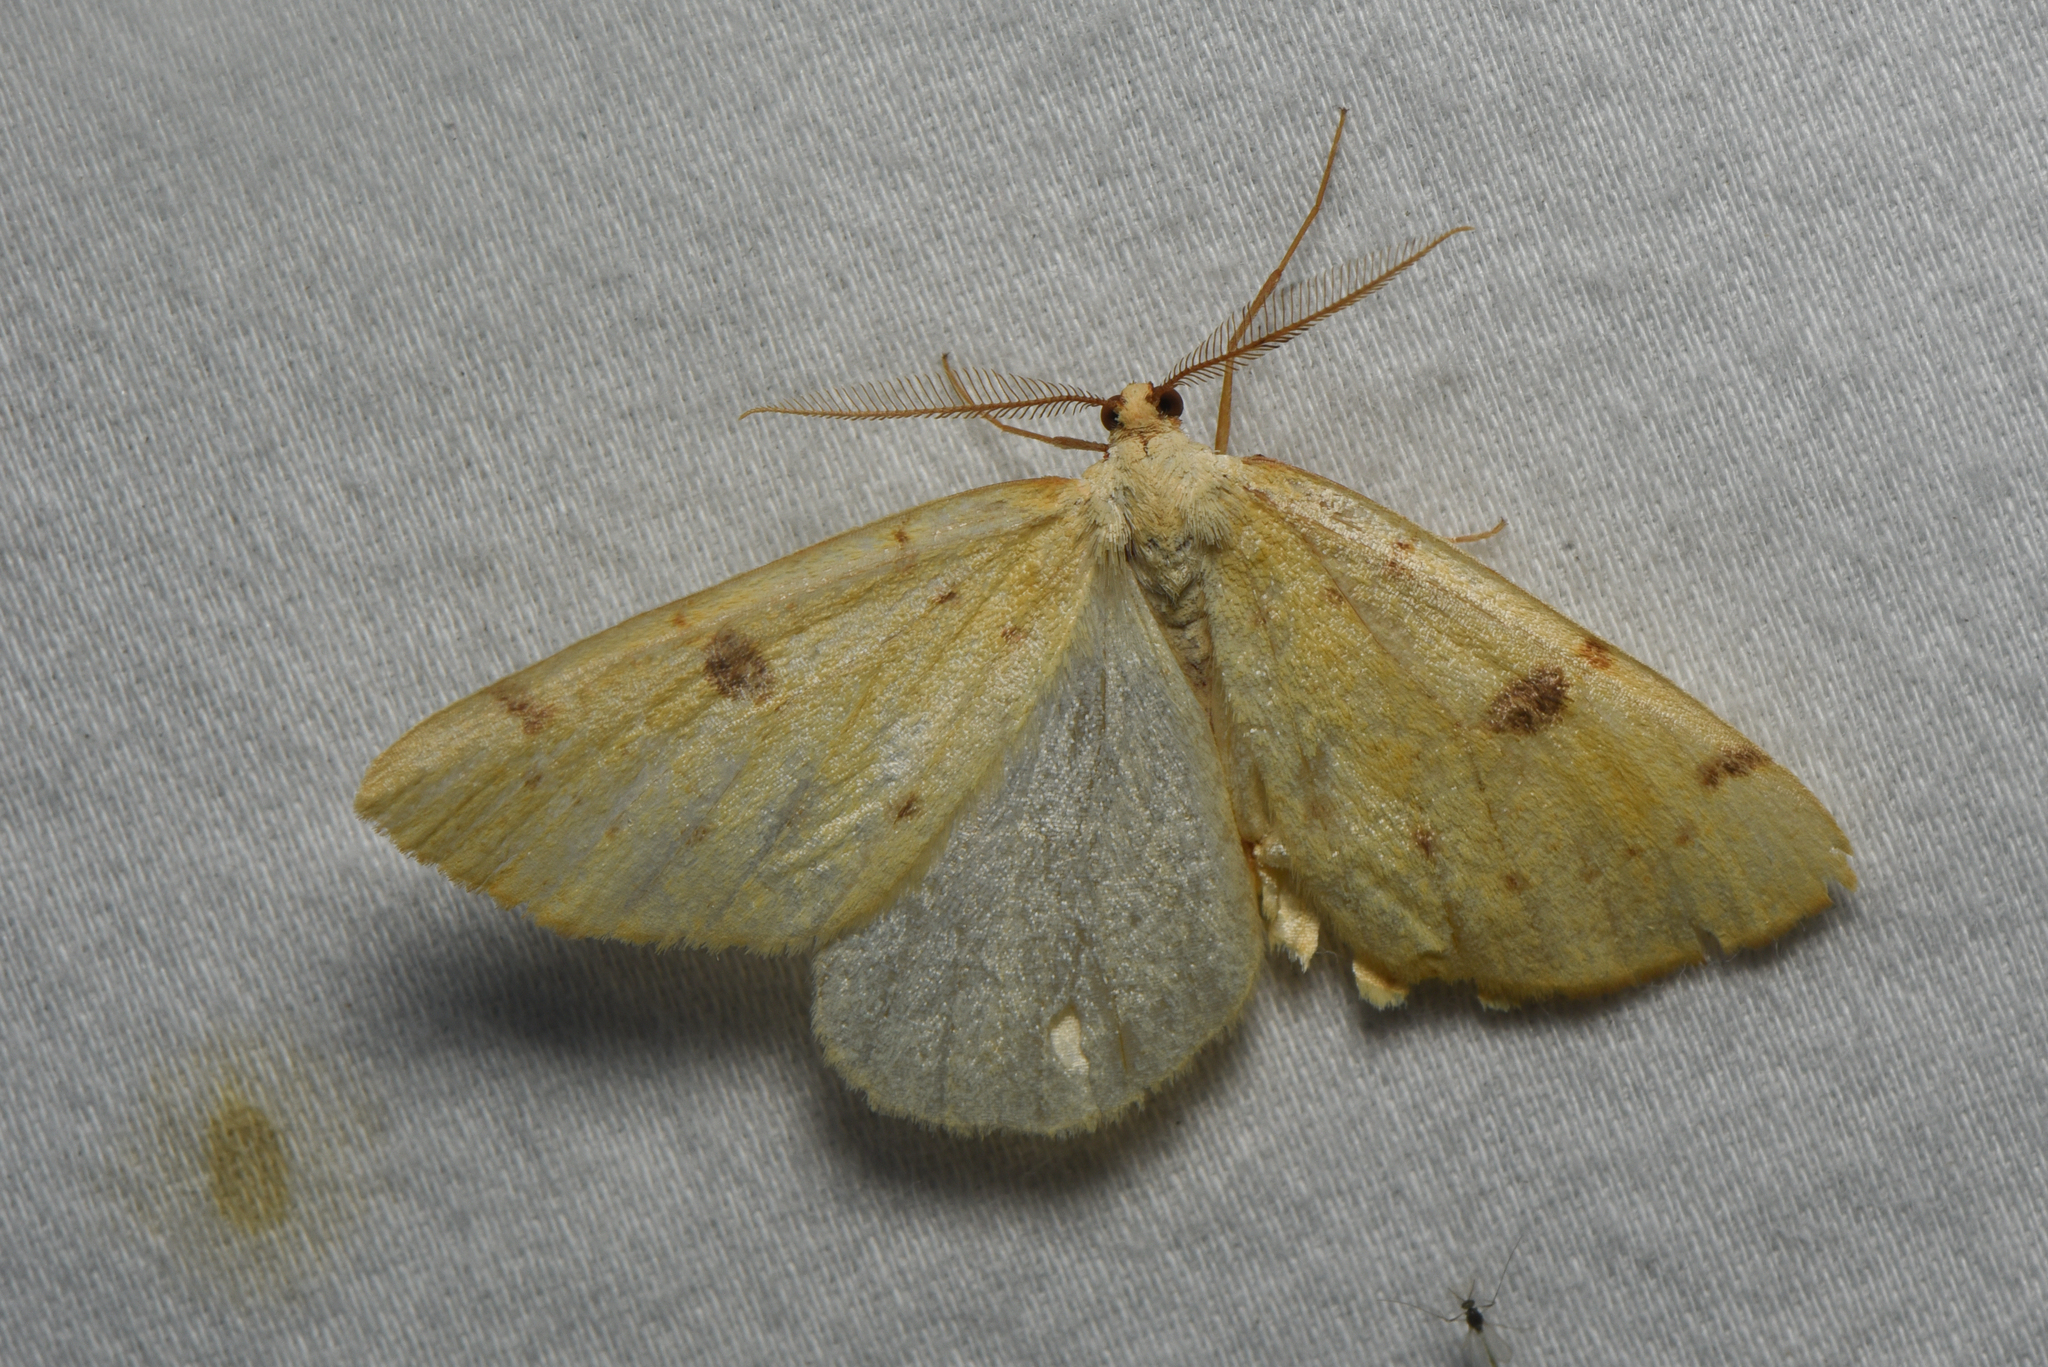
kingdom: Animalia
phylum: Arthropoda
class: Insecta
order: Lepidoptera
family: Geometridae
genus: Hesperumia
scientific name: Hesperumia sulphuraria
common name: Sulphur moth
